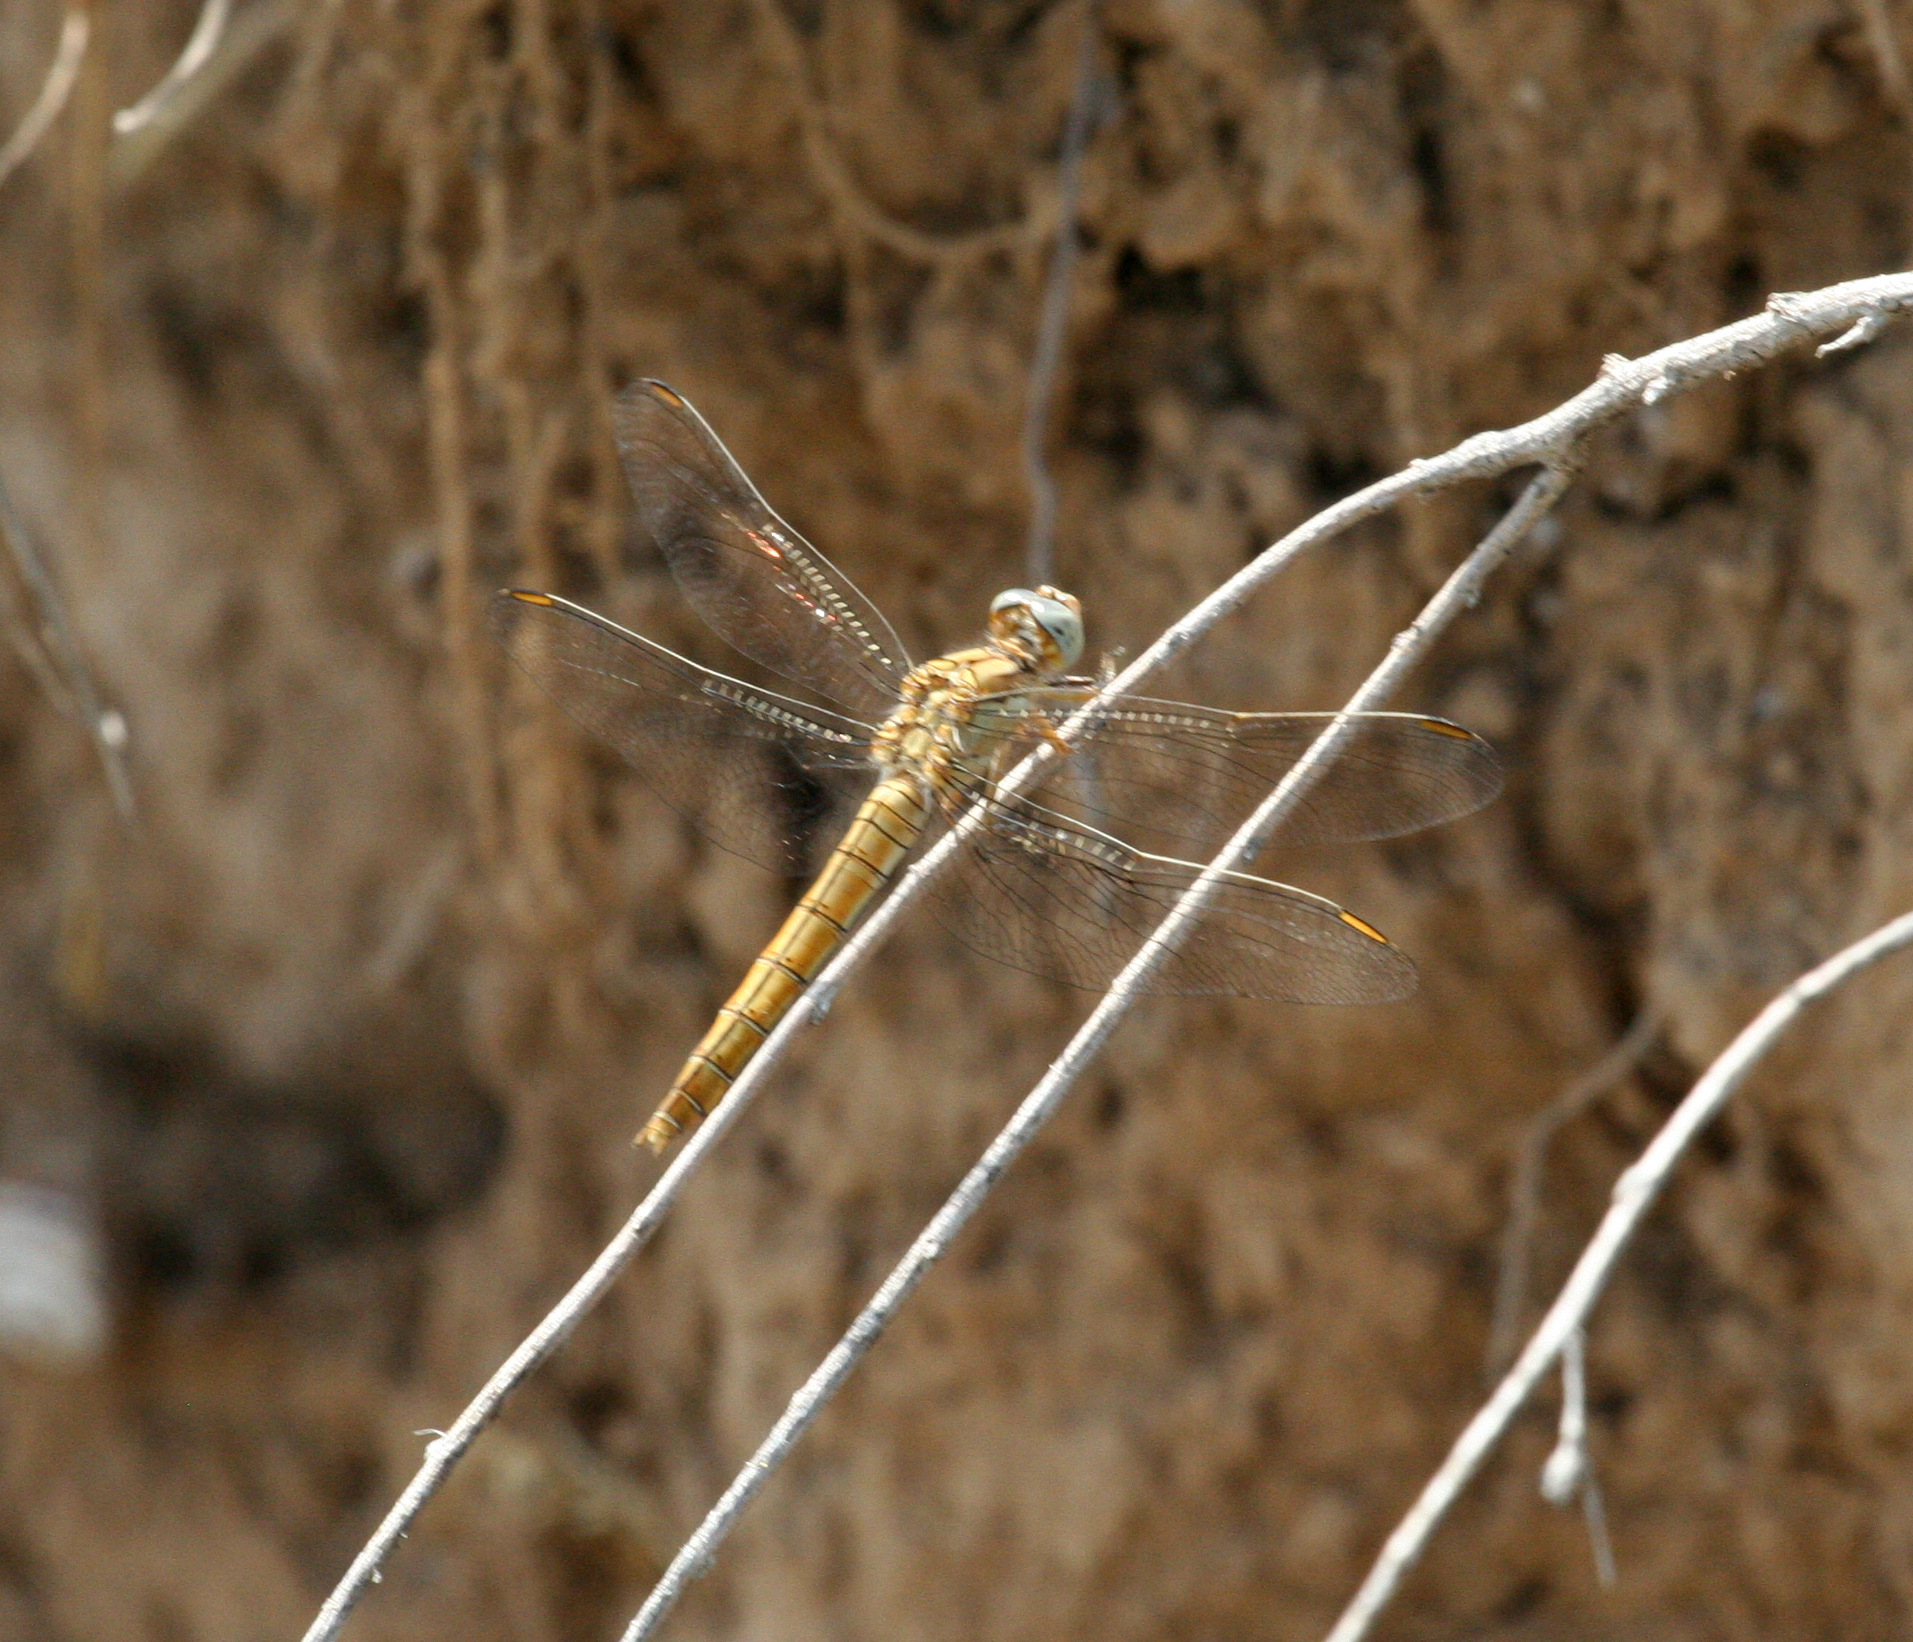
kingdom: Animalia
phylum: Arthropoda
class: Insecta
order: Odonata
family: Libellulidae
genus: Orthetrum
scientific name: Orthetrum brunneum
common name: Southern skimmer
